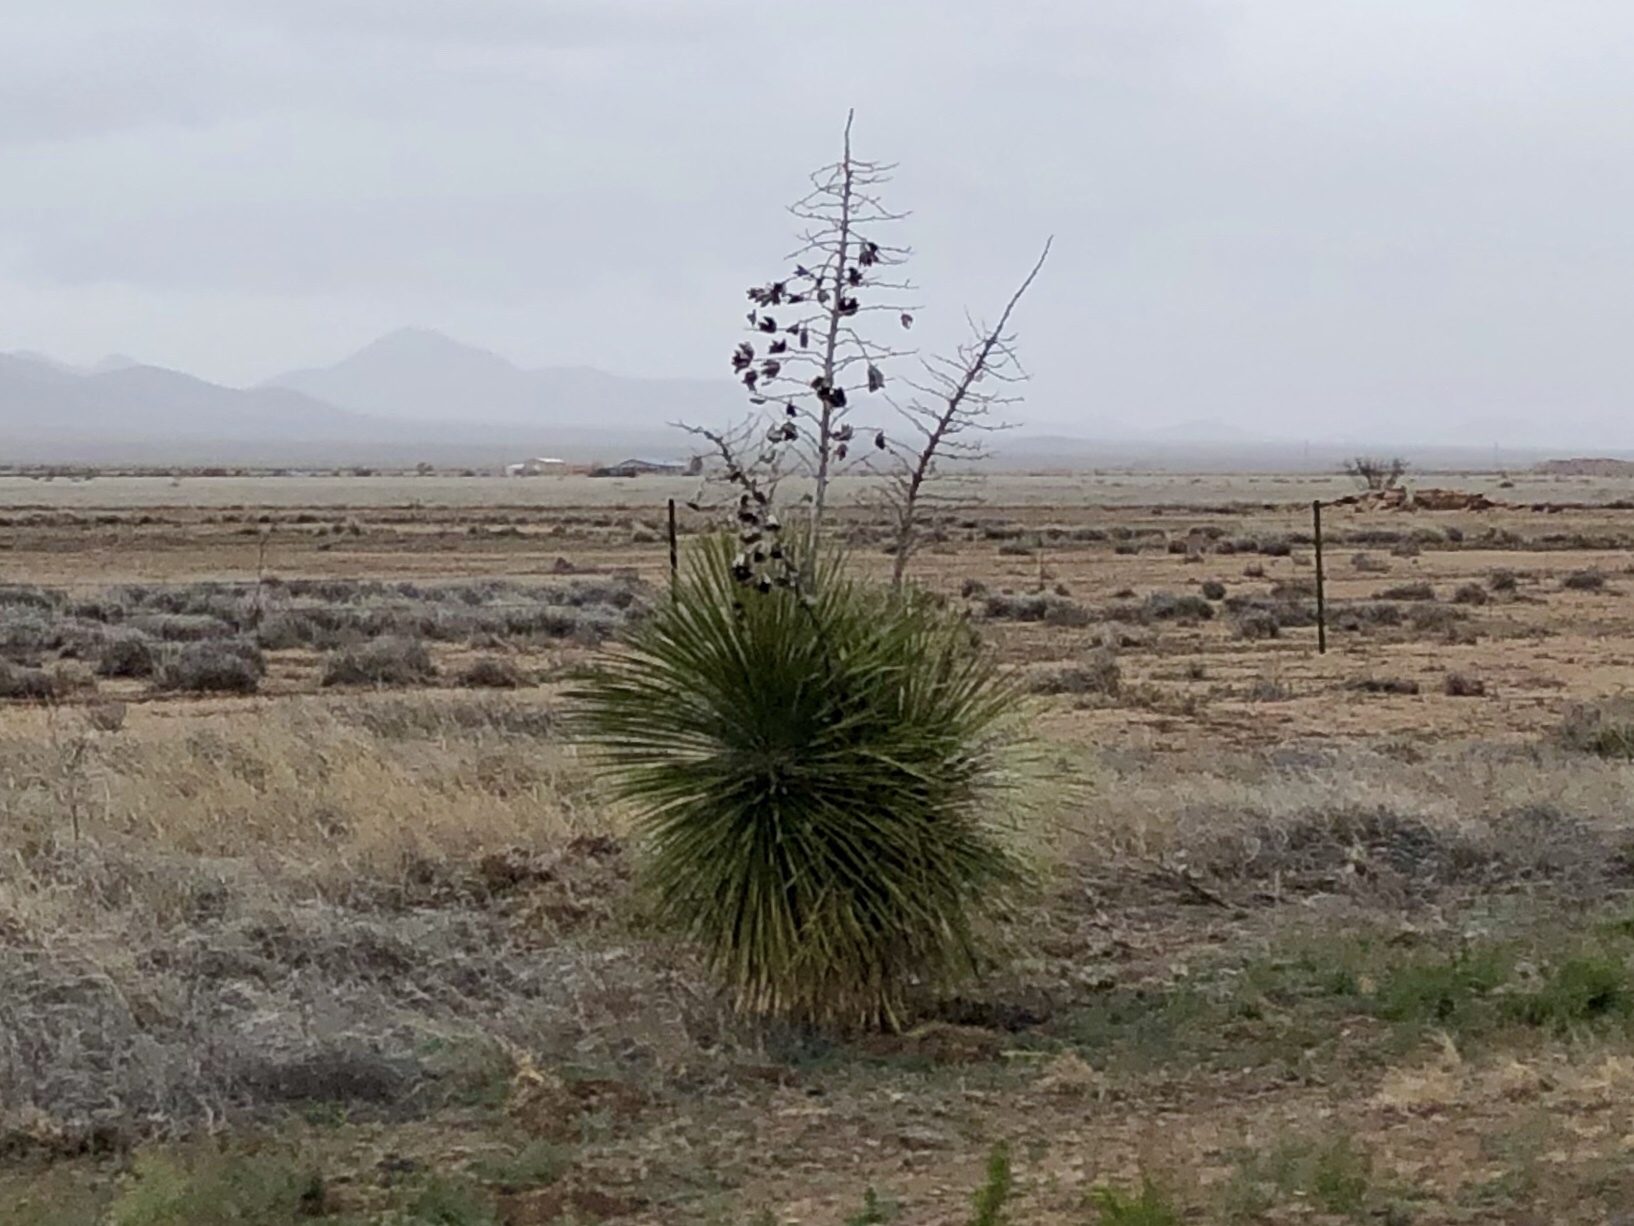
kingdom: Plantae
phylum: Tracheophyta
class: Liliopsida
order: Asparagales
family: Asparagaceae
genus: Yucca
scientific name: Yucca elata
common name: Palmella
